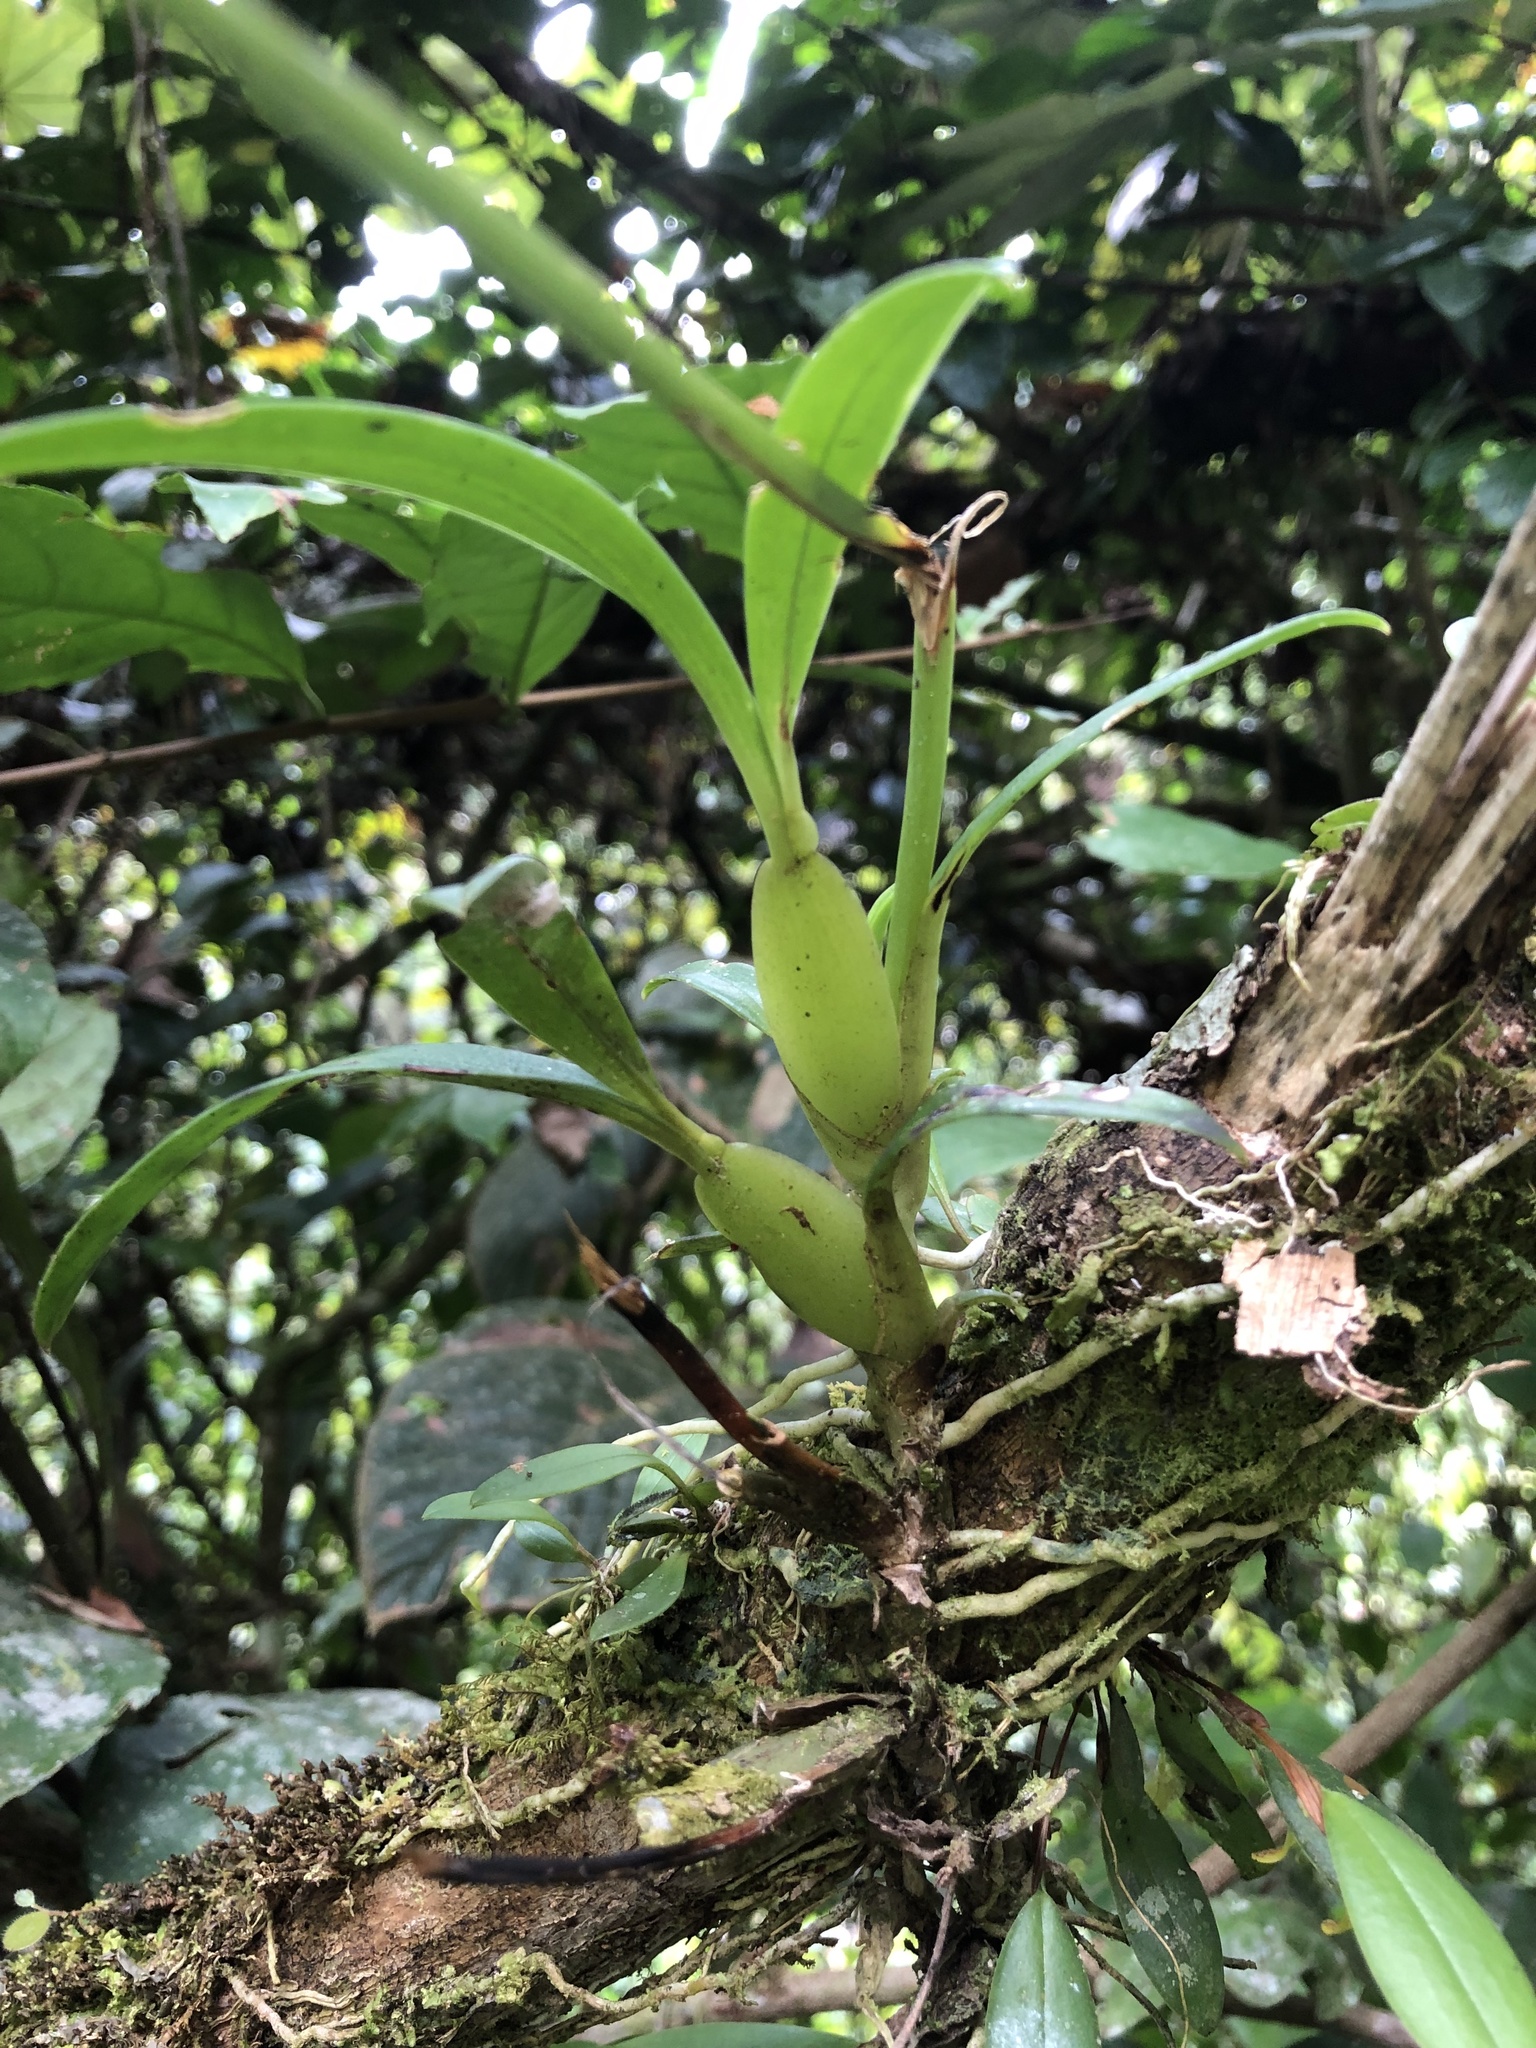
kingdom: Plantae
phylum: Tracheophyta
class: Liliopsida
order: Asparagales
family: Orchidaceae
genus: Cyrtochilum
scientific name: Cyrtochilum meirax
